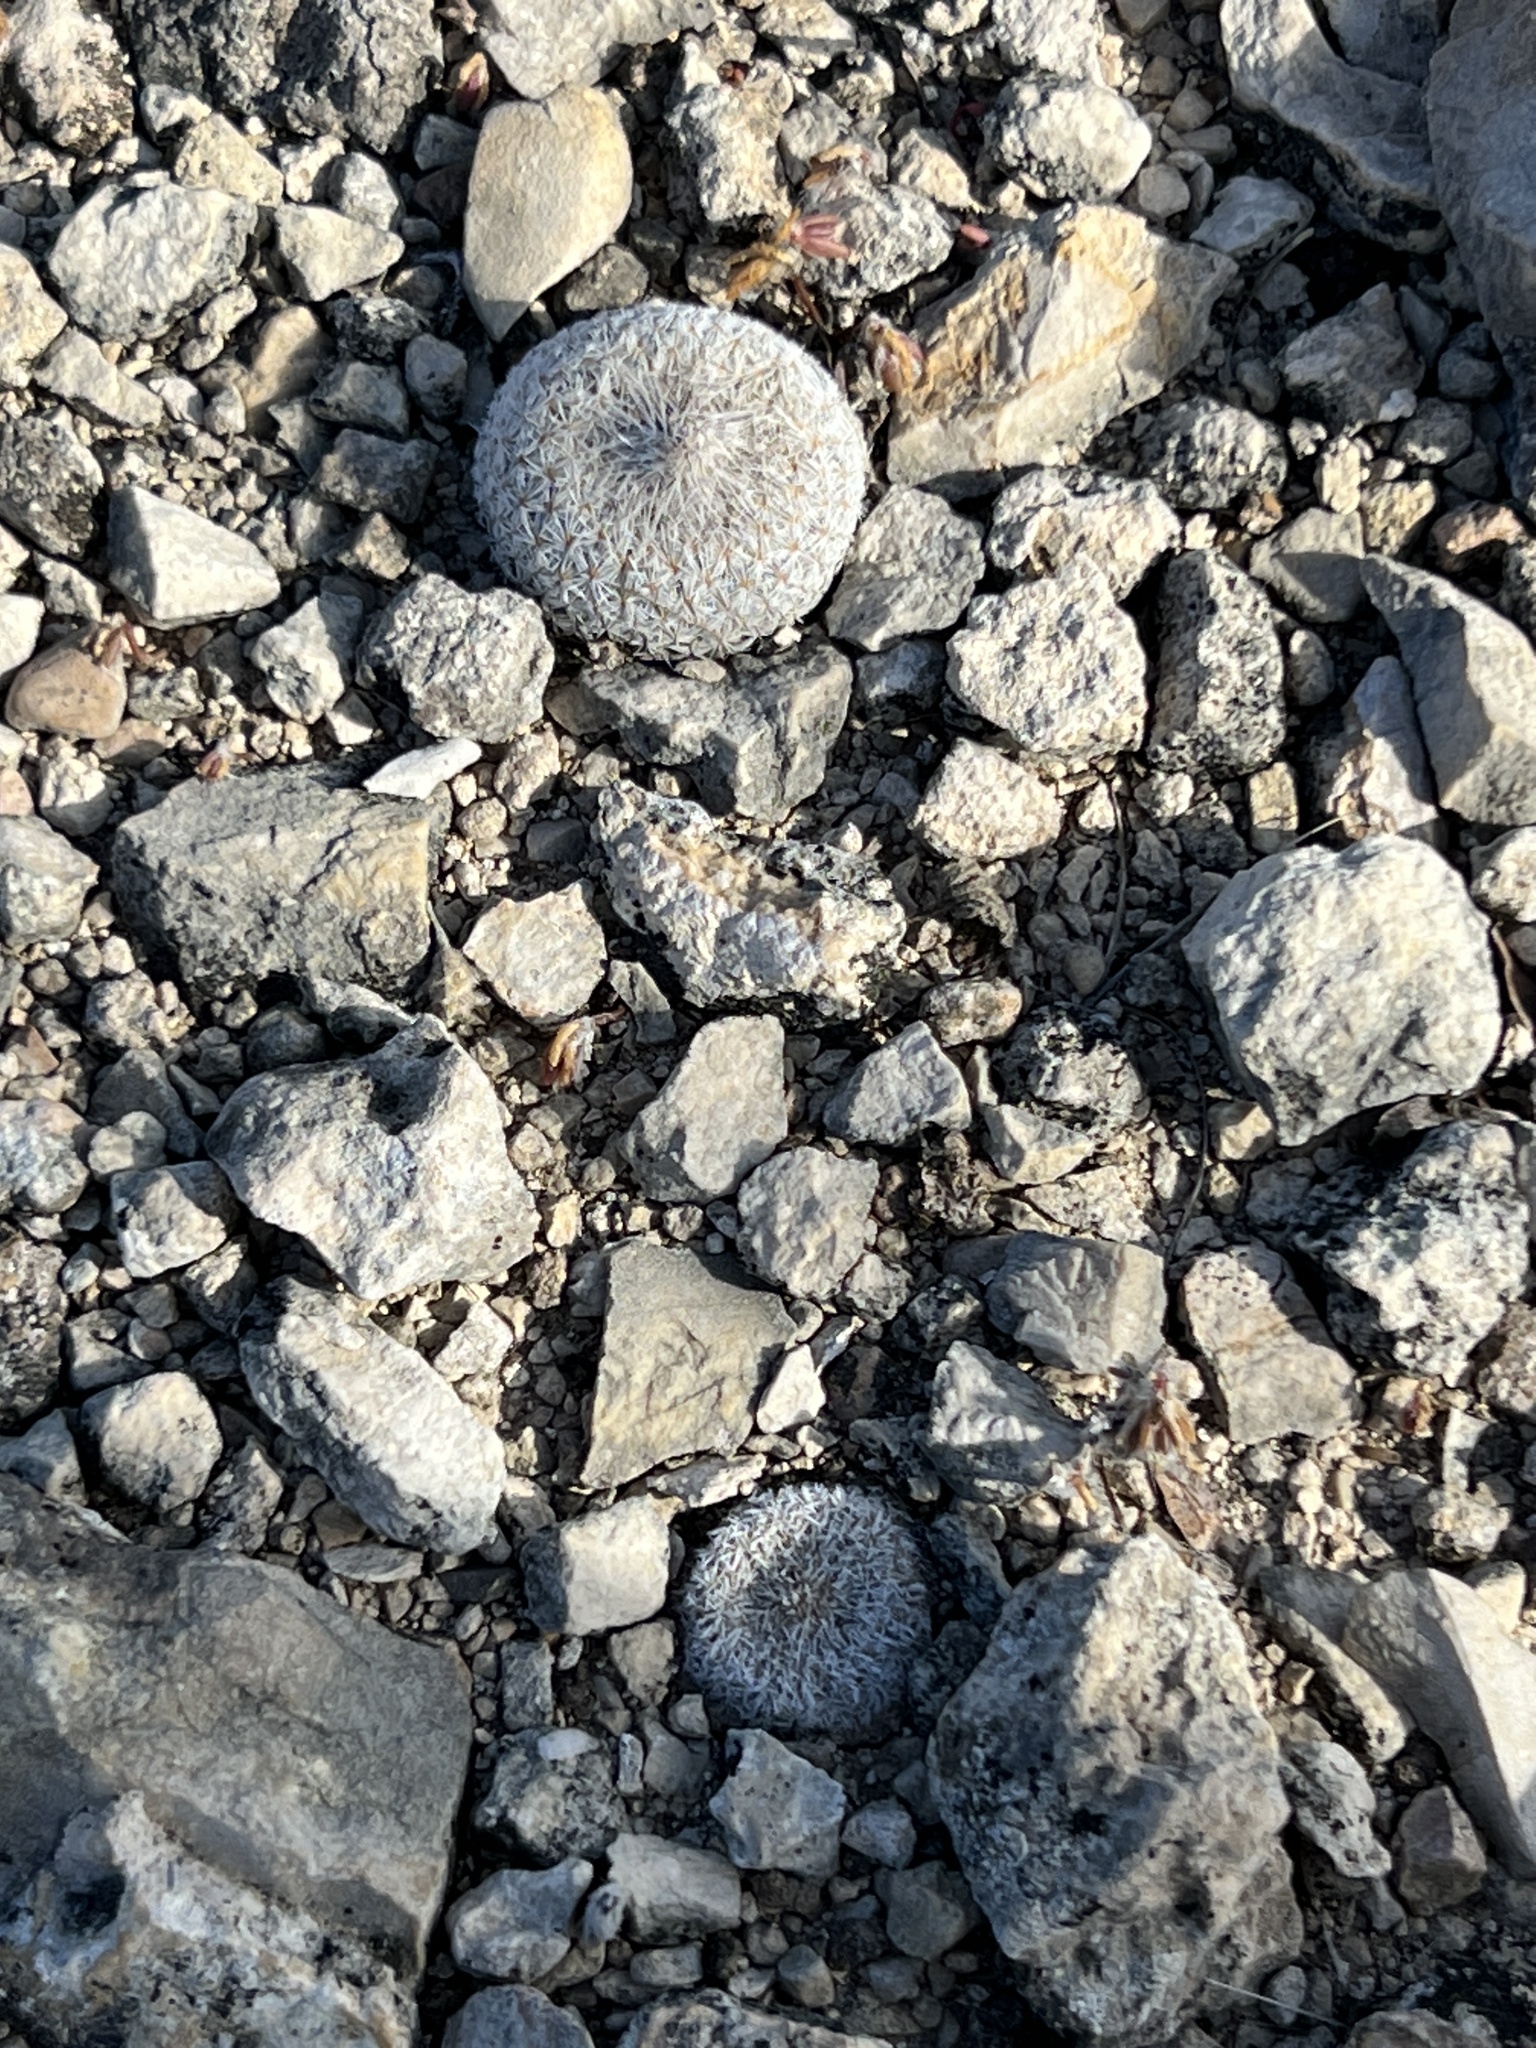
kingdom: Plantae
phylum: Tracheophyta
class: Magnoliopsida
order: Caryophyllales
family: Cactaceae
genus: Epithelantha
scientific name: Epithelantha micromeris
